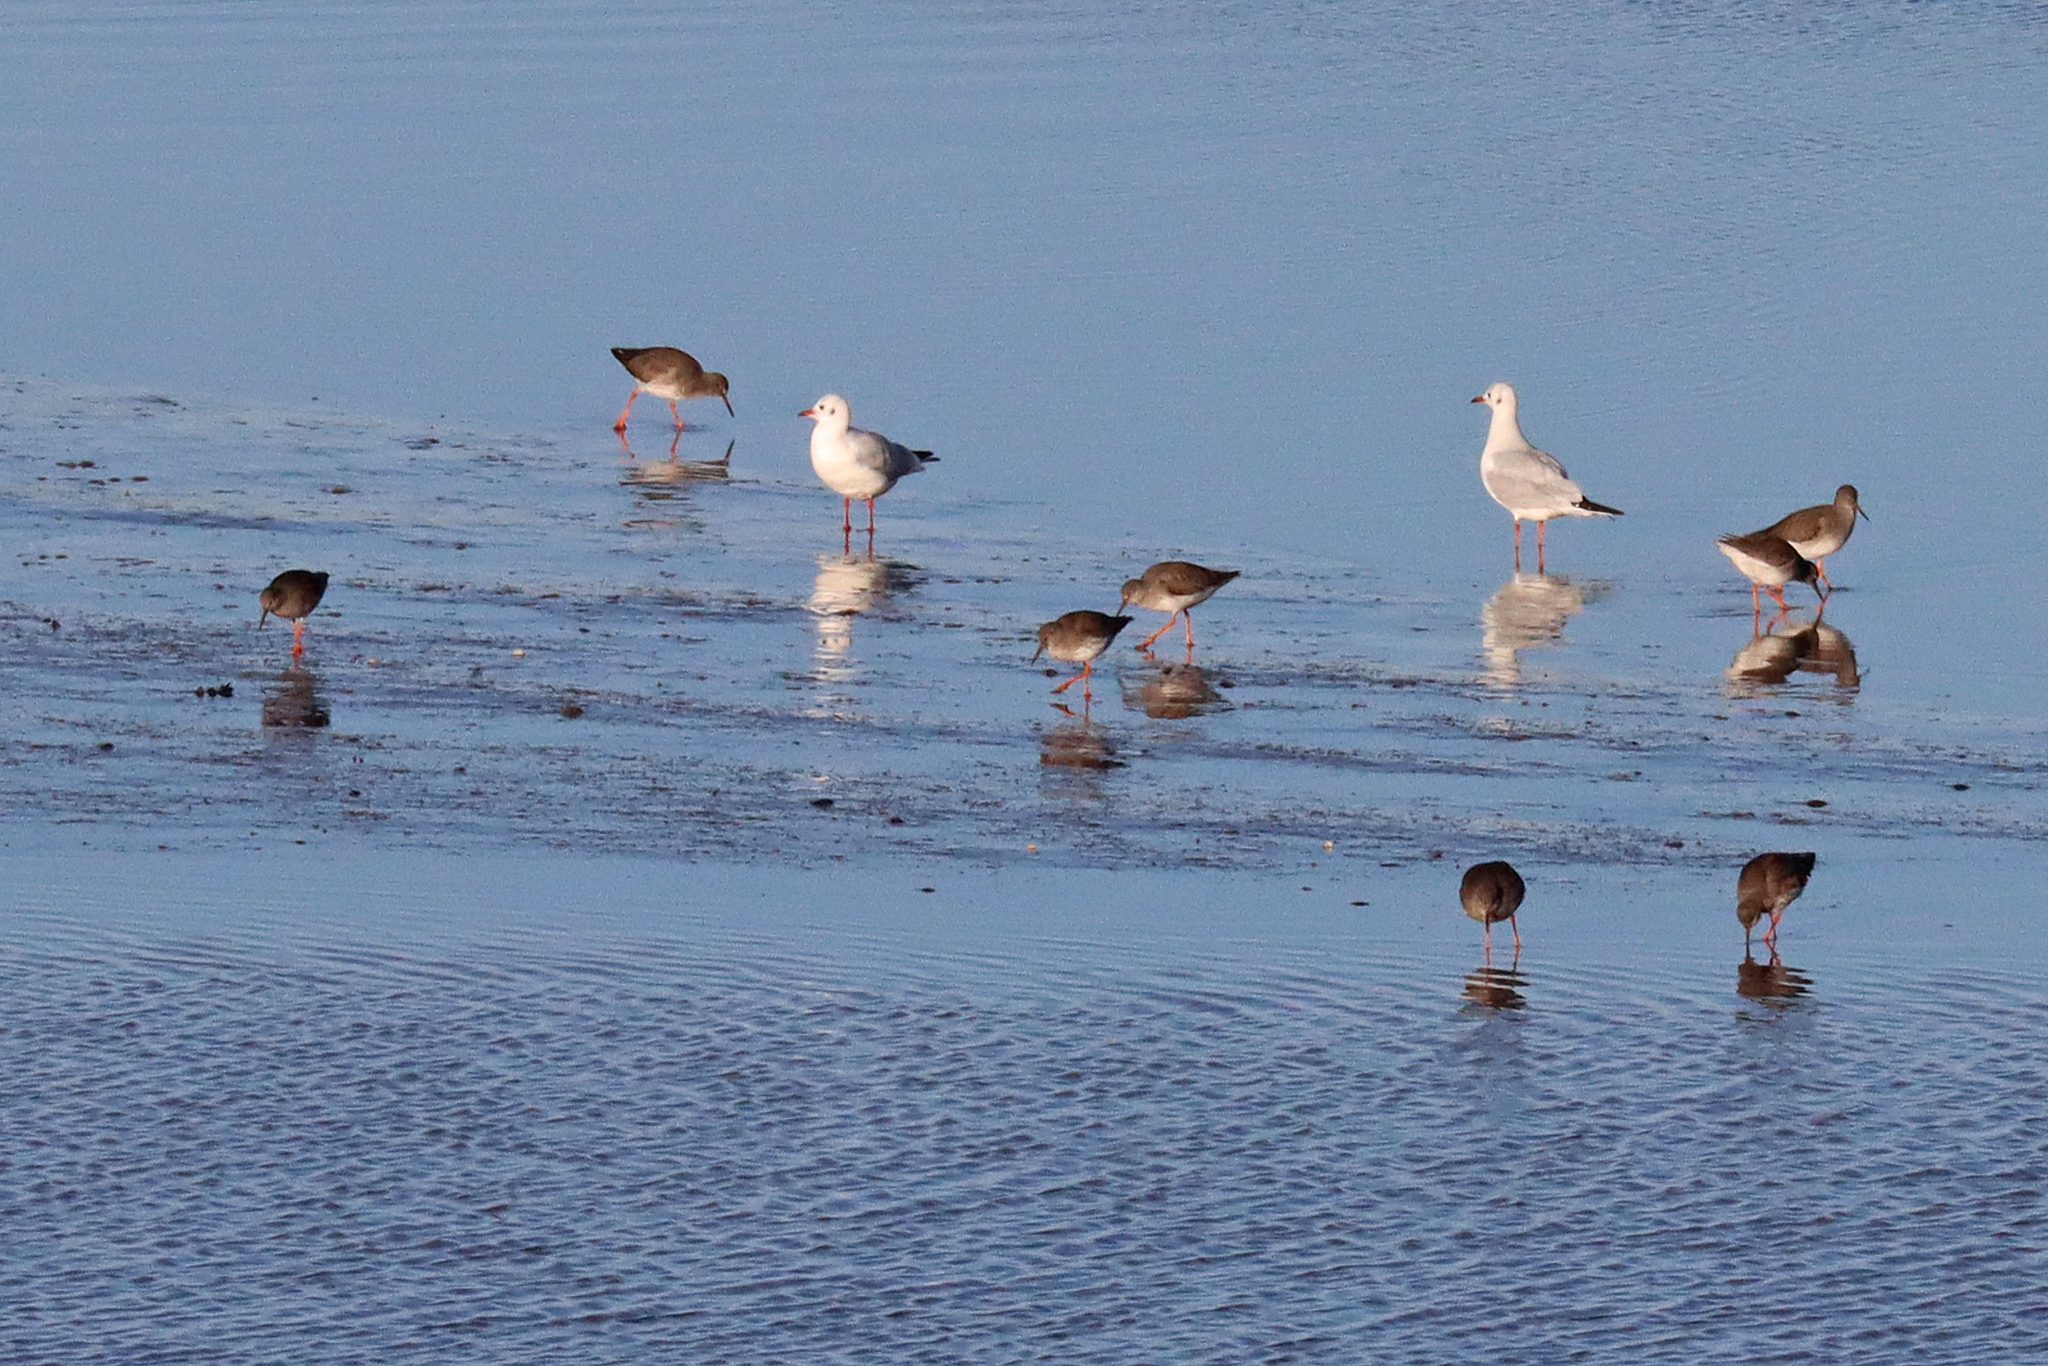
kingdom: Animalia
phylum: Chordata
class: Aves
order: Charadriiformes
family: Scolopacidae
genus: Tringa
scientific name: Tringa totanus
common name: Common redshank
